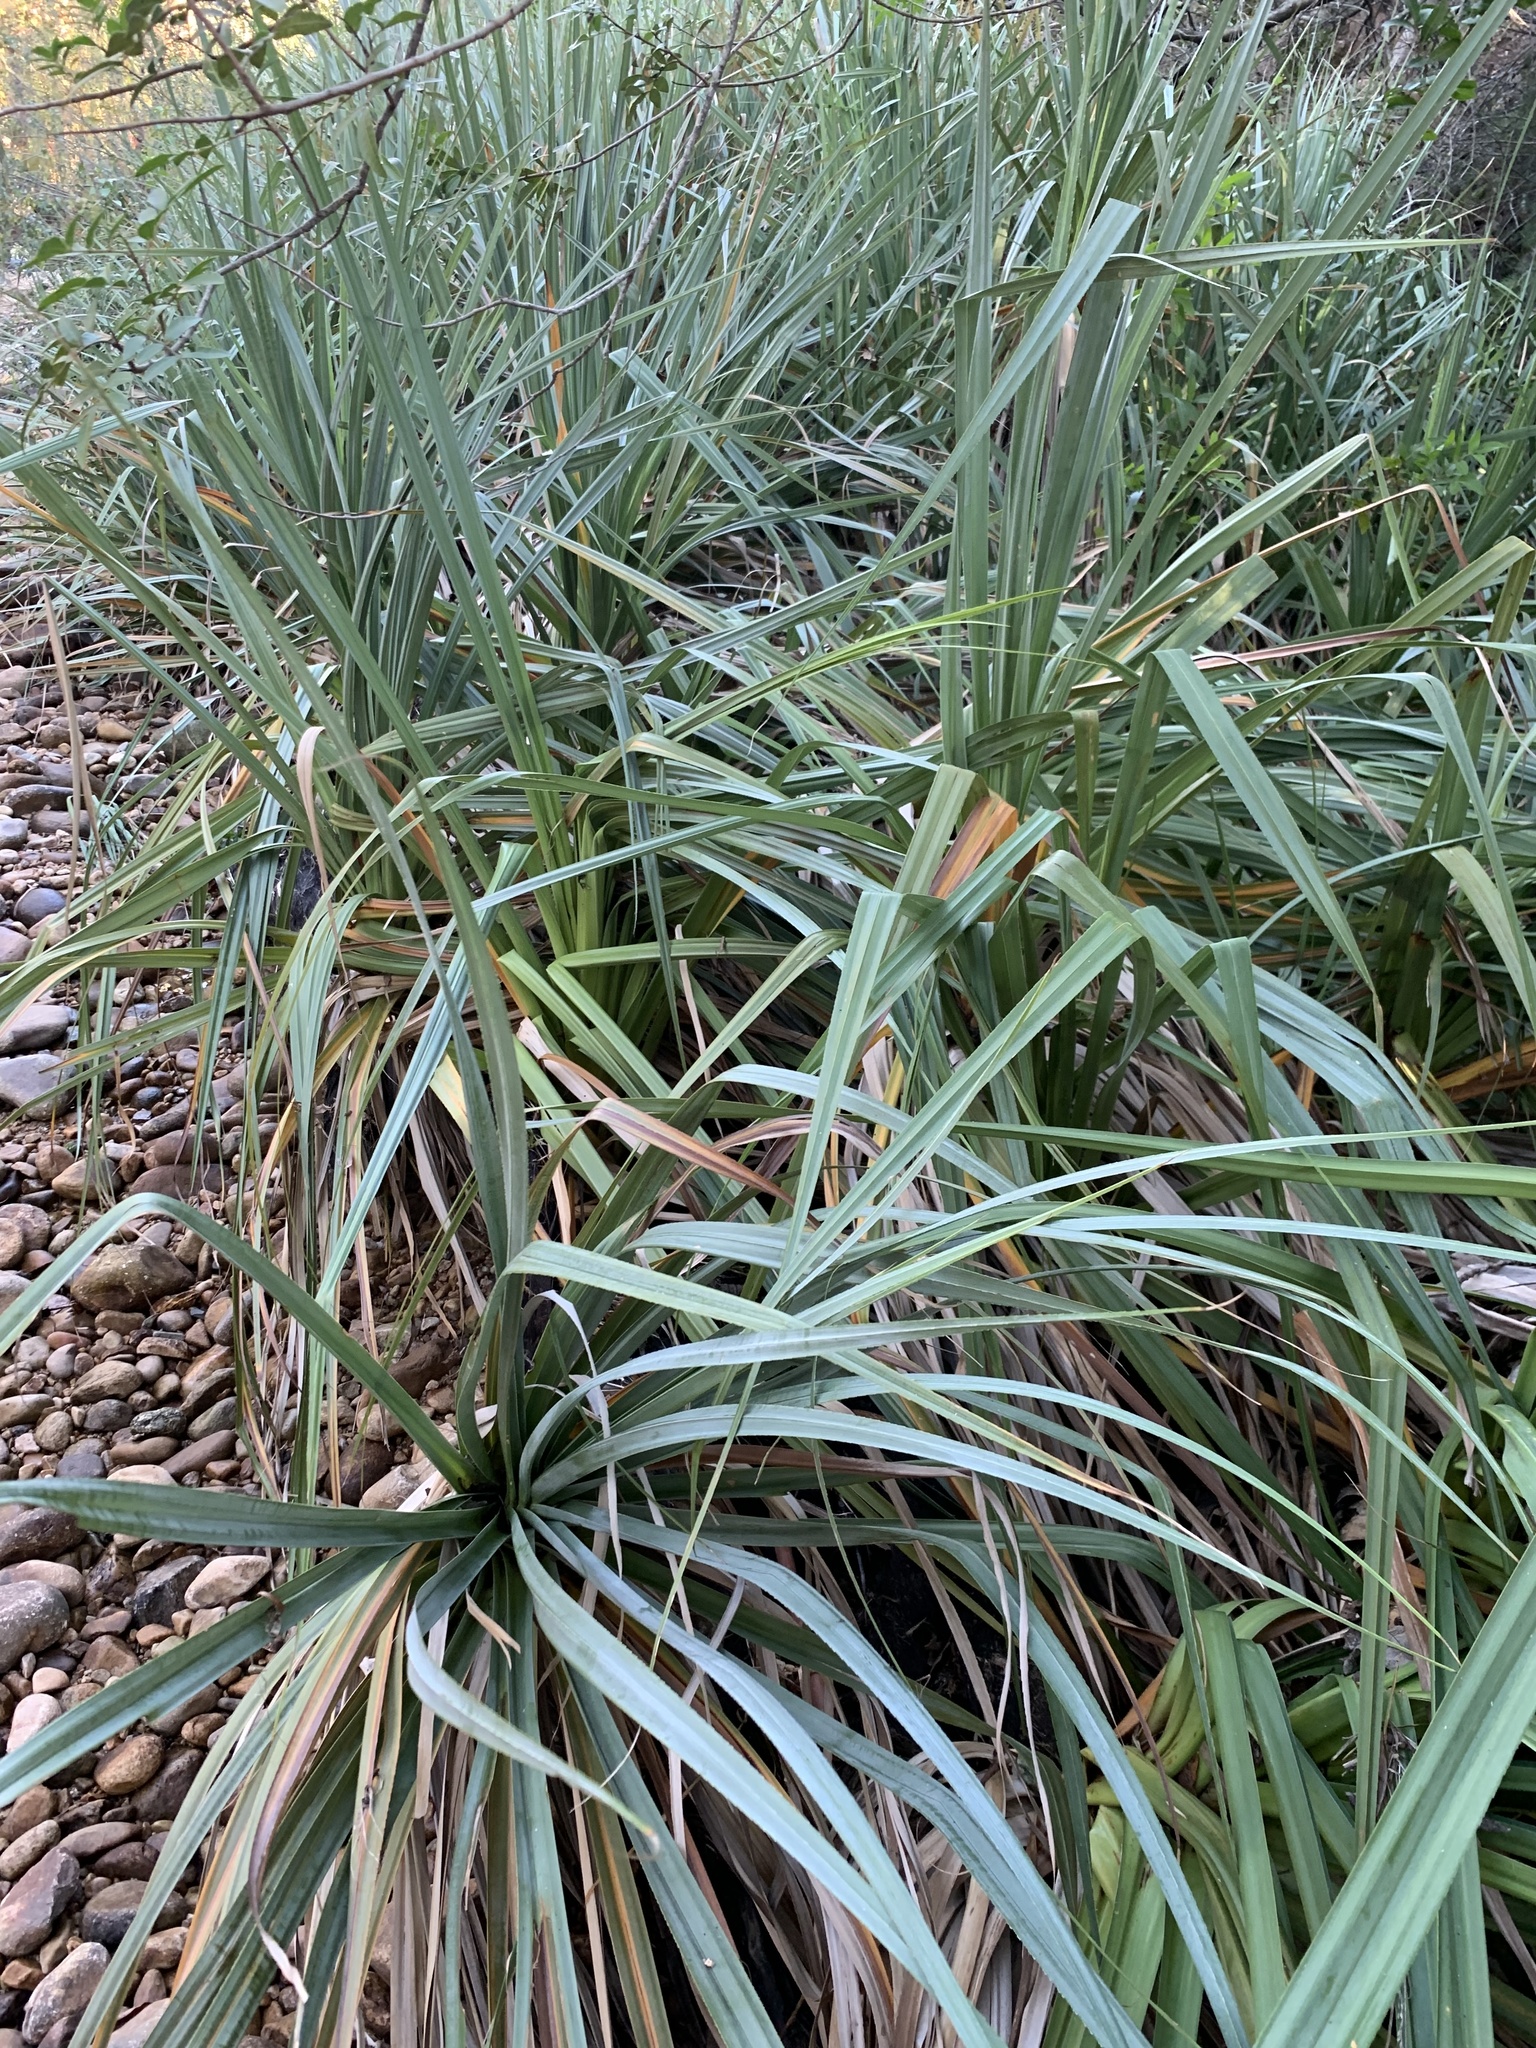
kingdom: Plantae
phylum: Tracheophyta
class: Liliopsida
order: Poales
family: Thurniaceae
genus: Prionium
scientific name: Prionium serratum
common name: Palmiet
